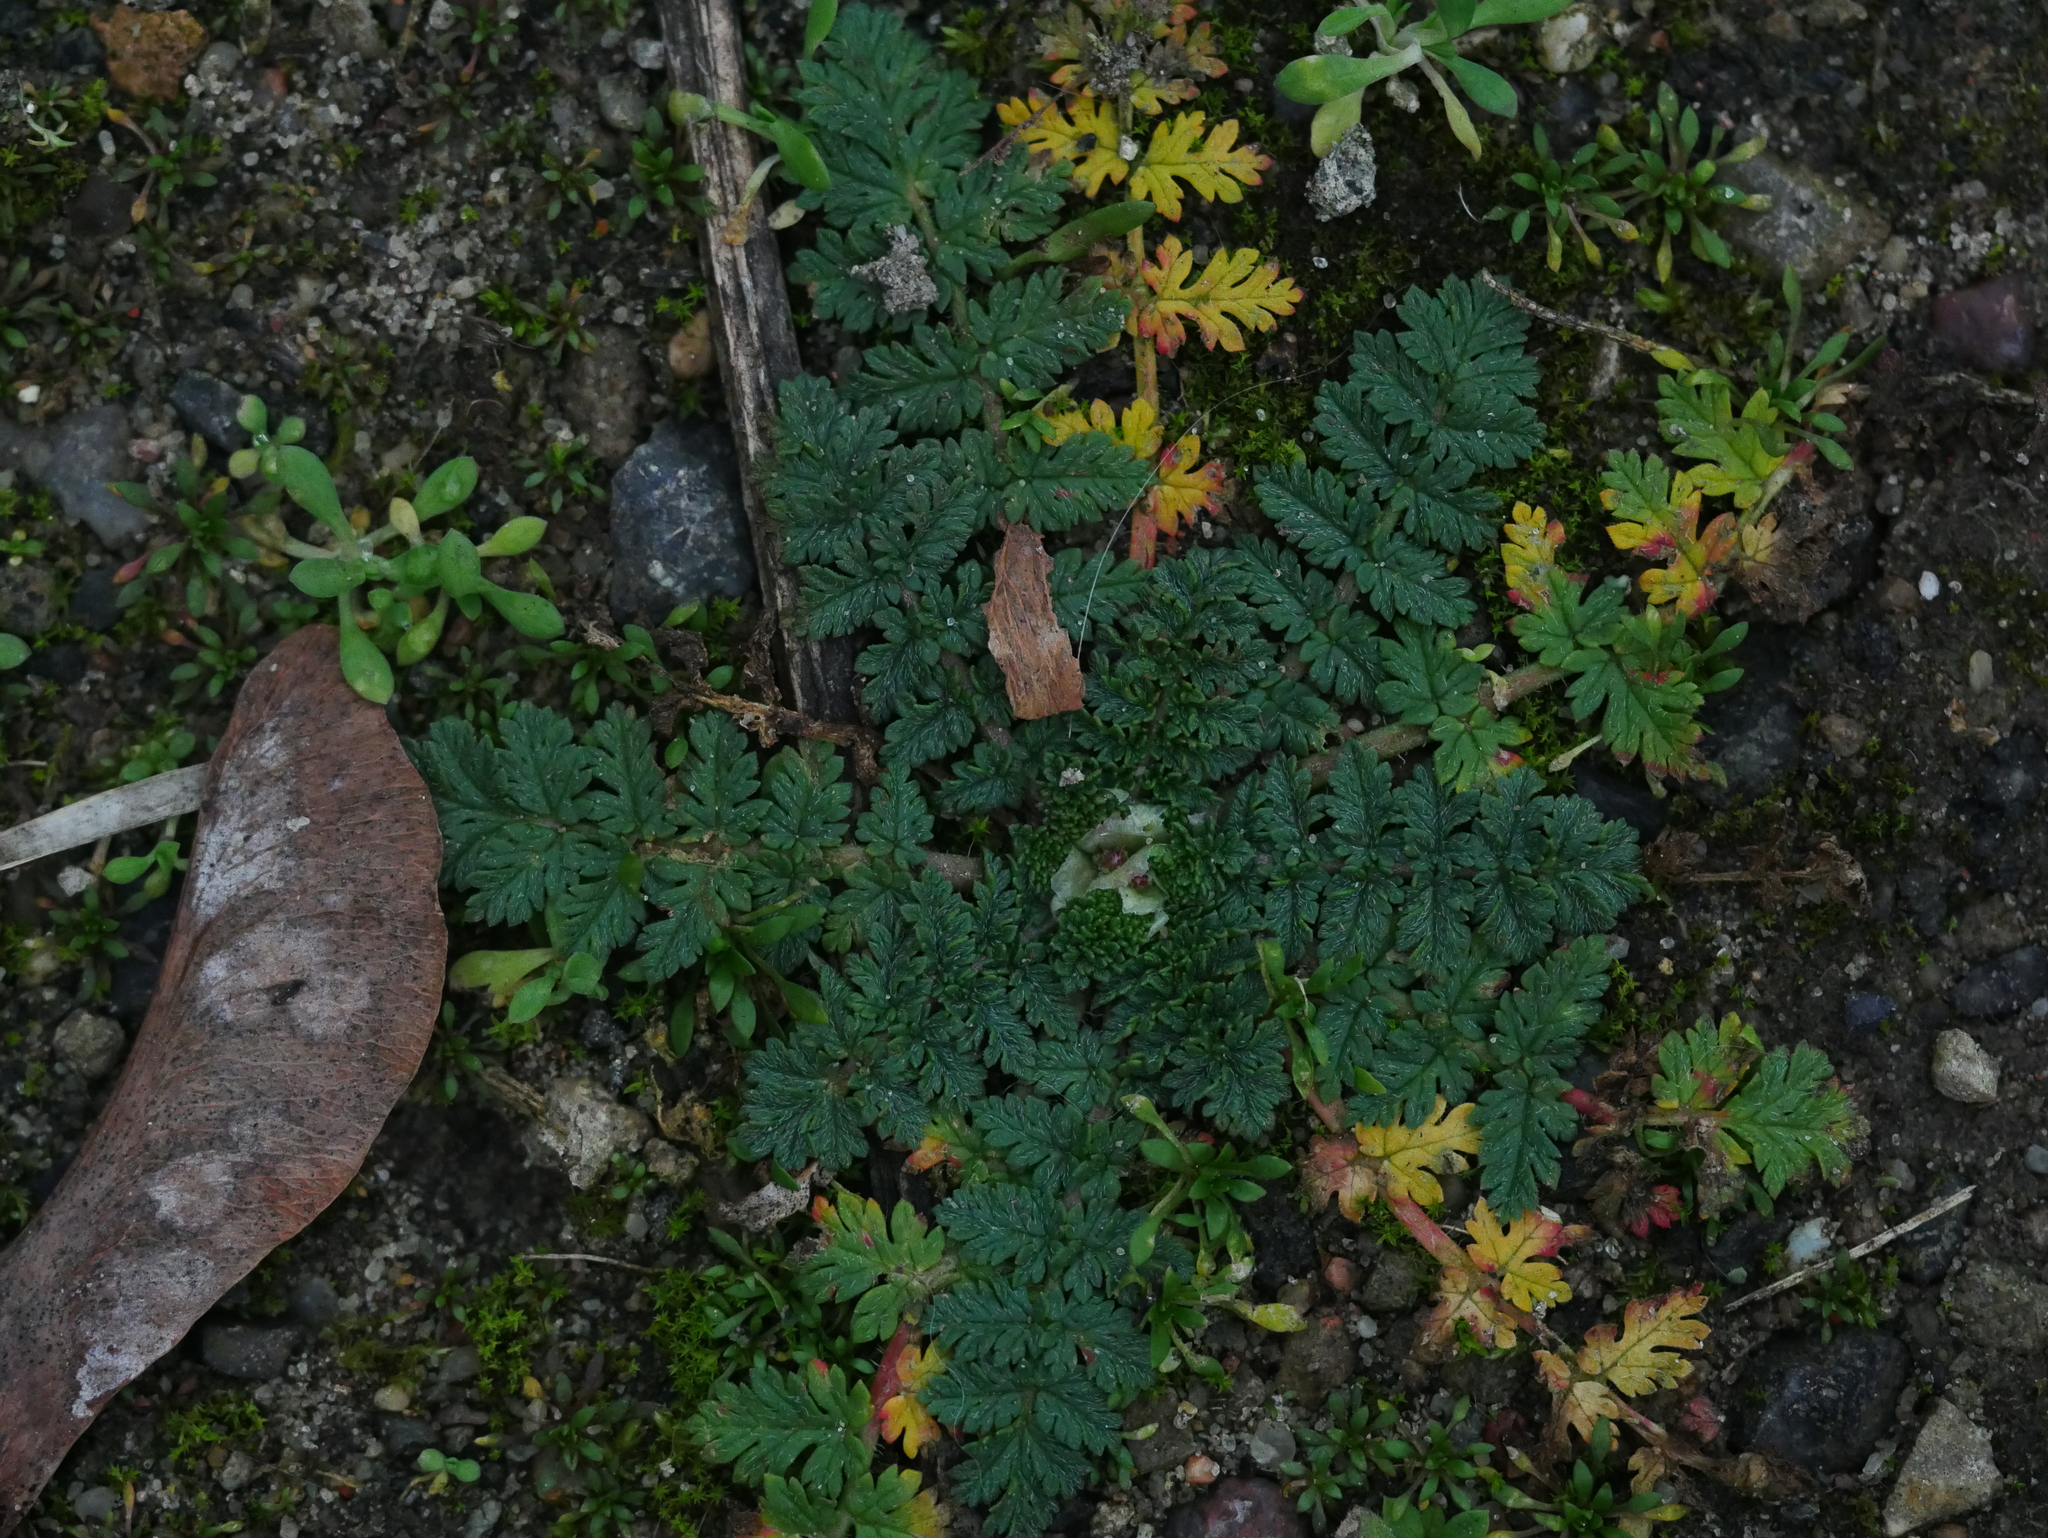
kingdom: Plantae
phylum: Tracheophyta
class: Magnoliopsida
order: Geraniales
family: Geraniaceae
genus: Erodium
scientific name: Erodium cicutarium
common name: Common stork's-bill
